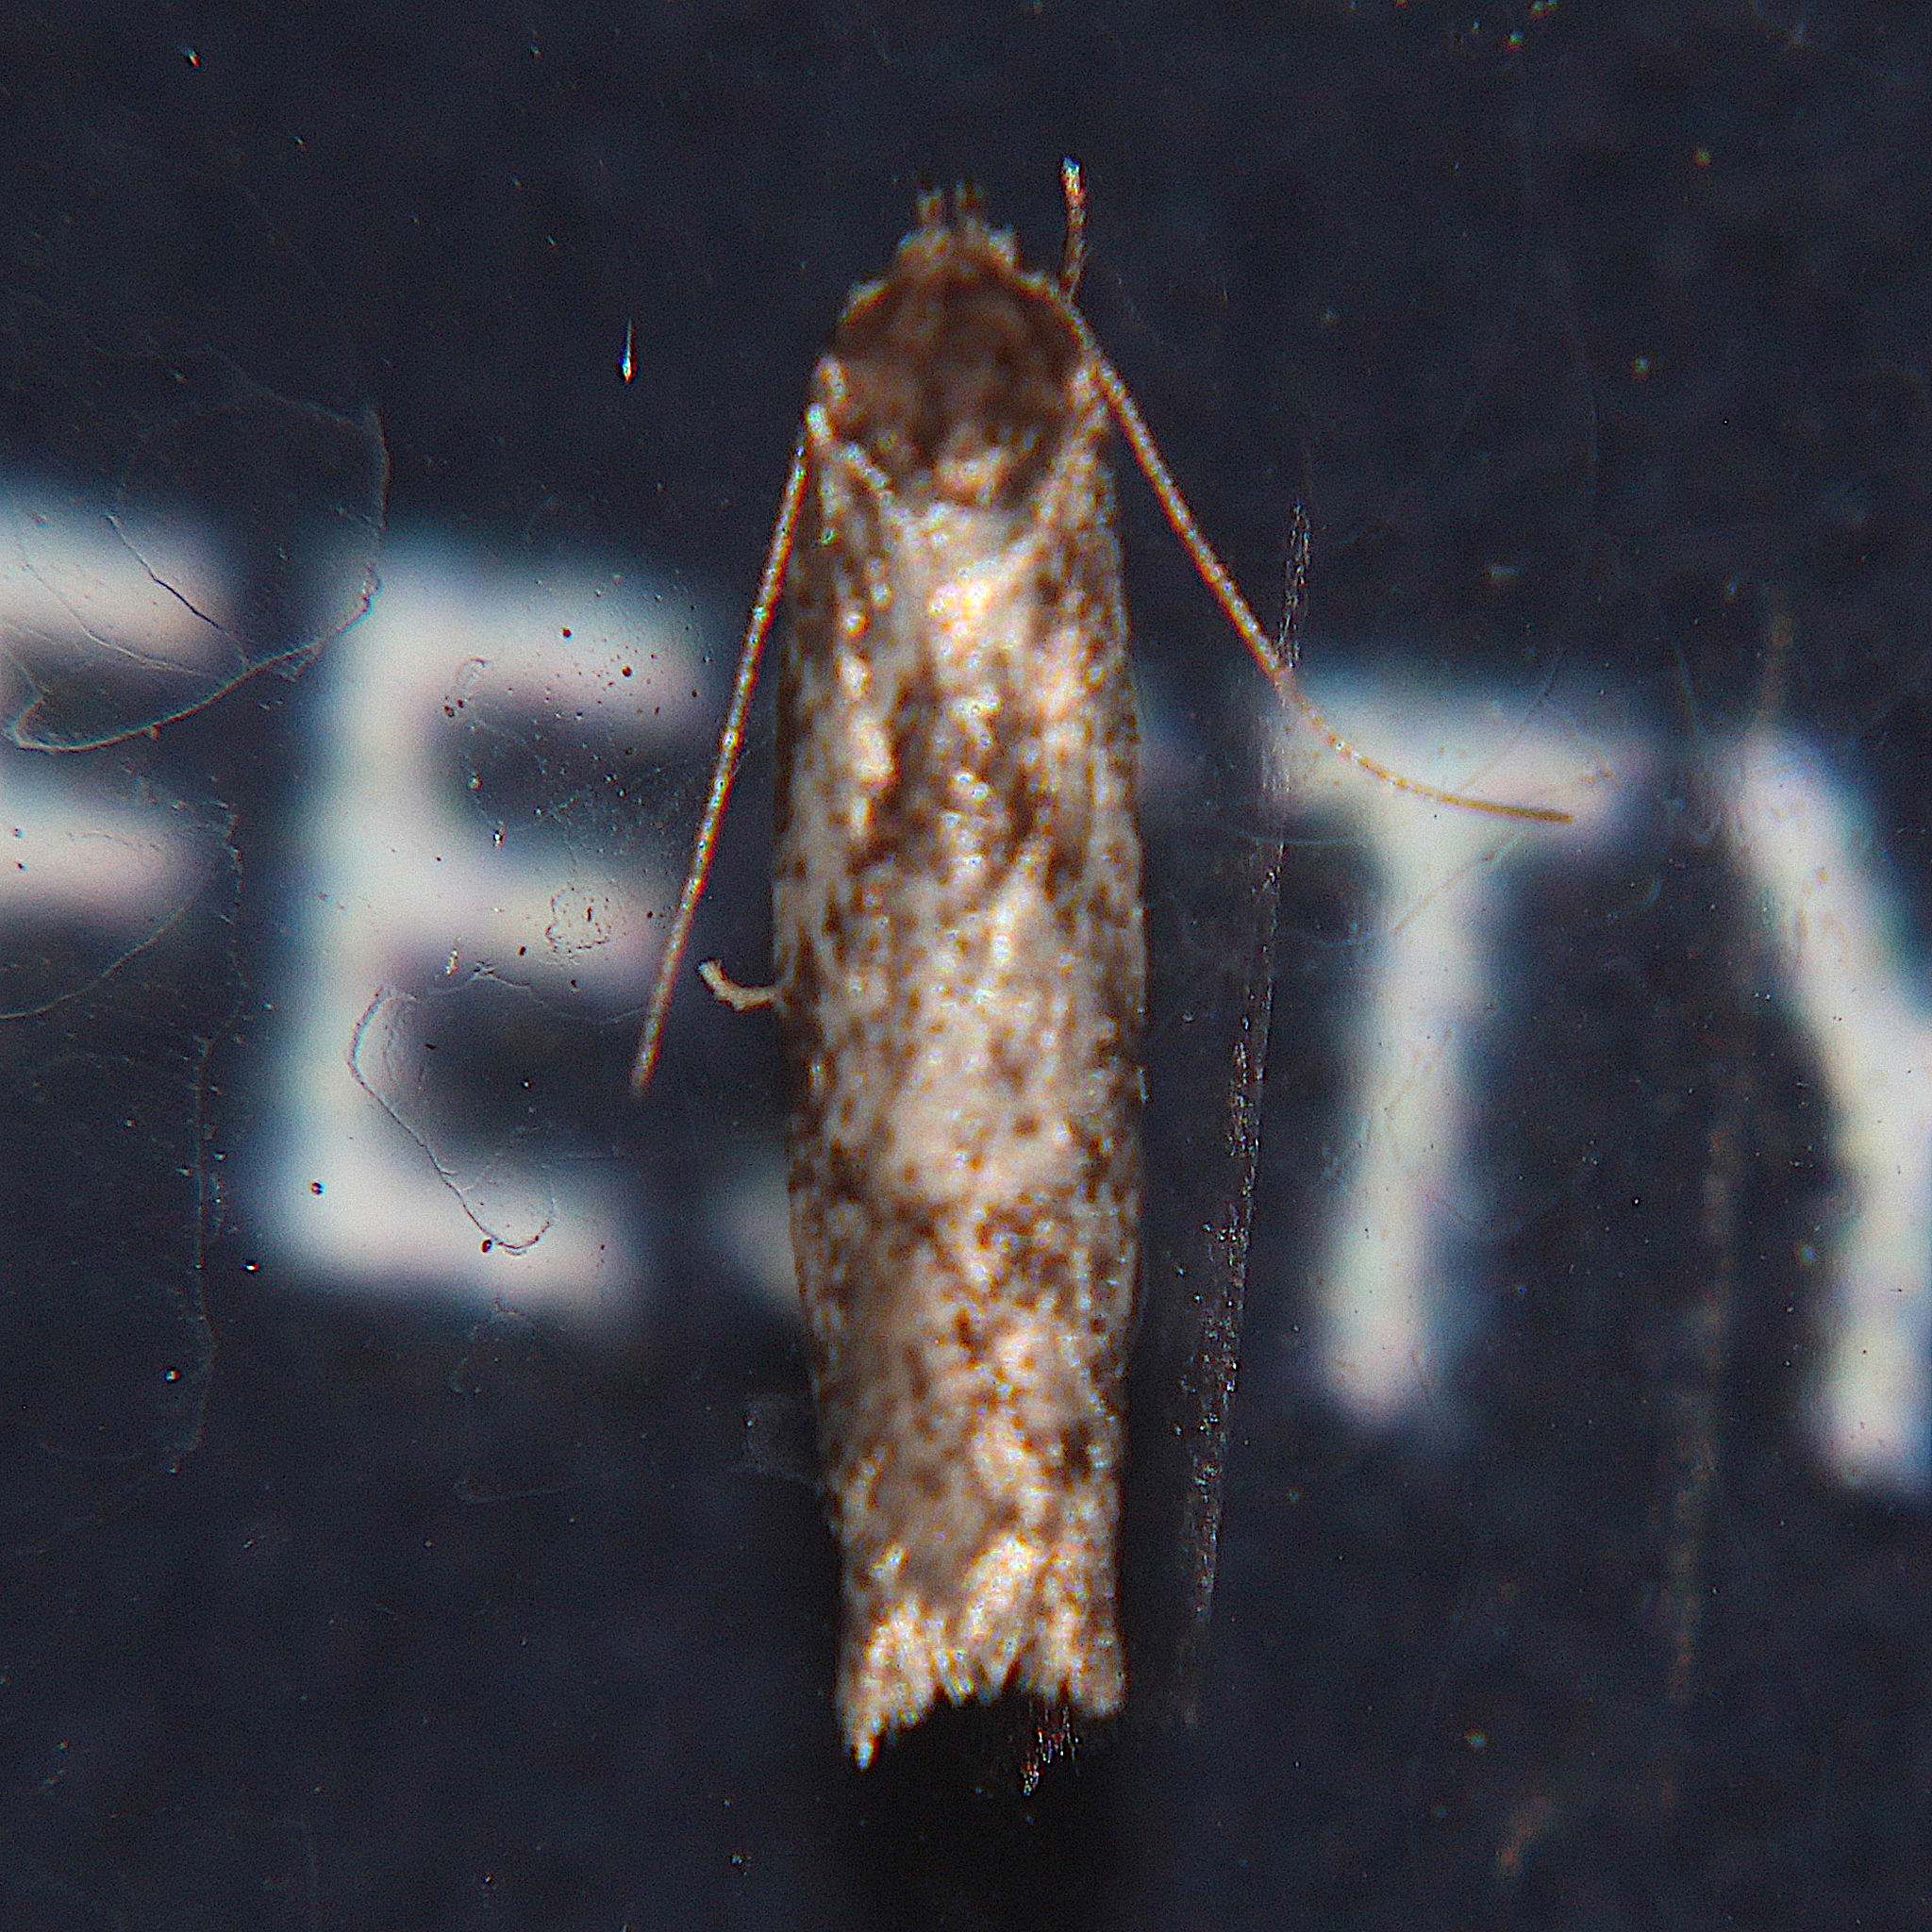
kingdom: Animalia
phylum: Arthropoda
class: Insecta
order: Lepidoptera
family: Oecophoridae
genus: Tingena
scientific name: Tingena clarkei
